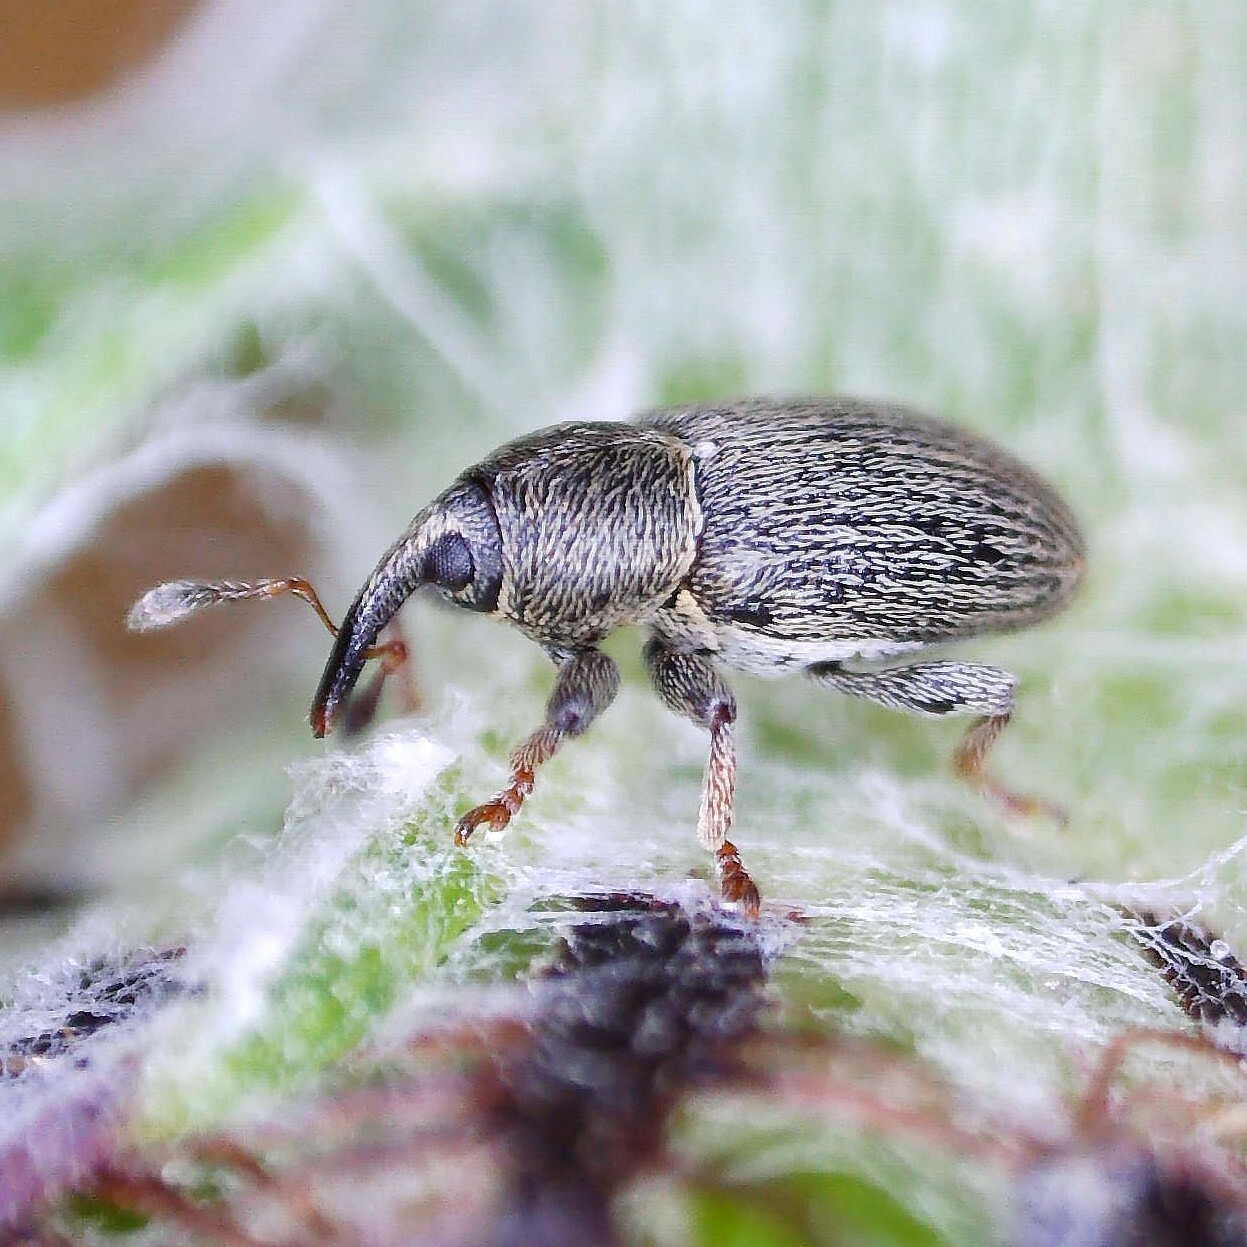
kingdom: Animalia
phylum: Arthropoda
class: Insecta
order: Coleoptera
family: Curculionidae
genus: Tychius
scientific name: Tychius picirostris
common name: Clover seed weevil
